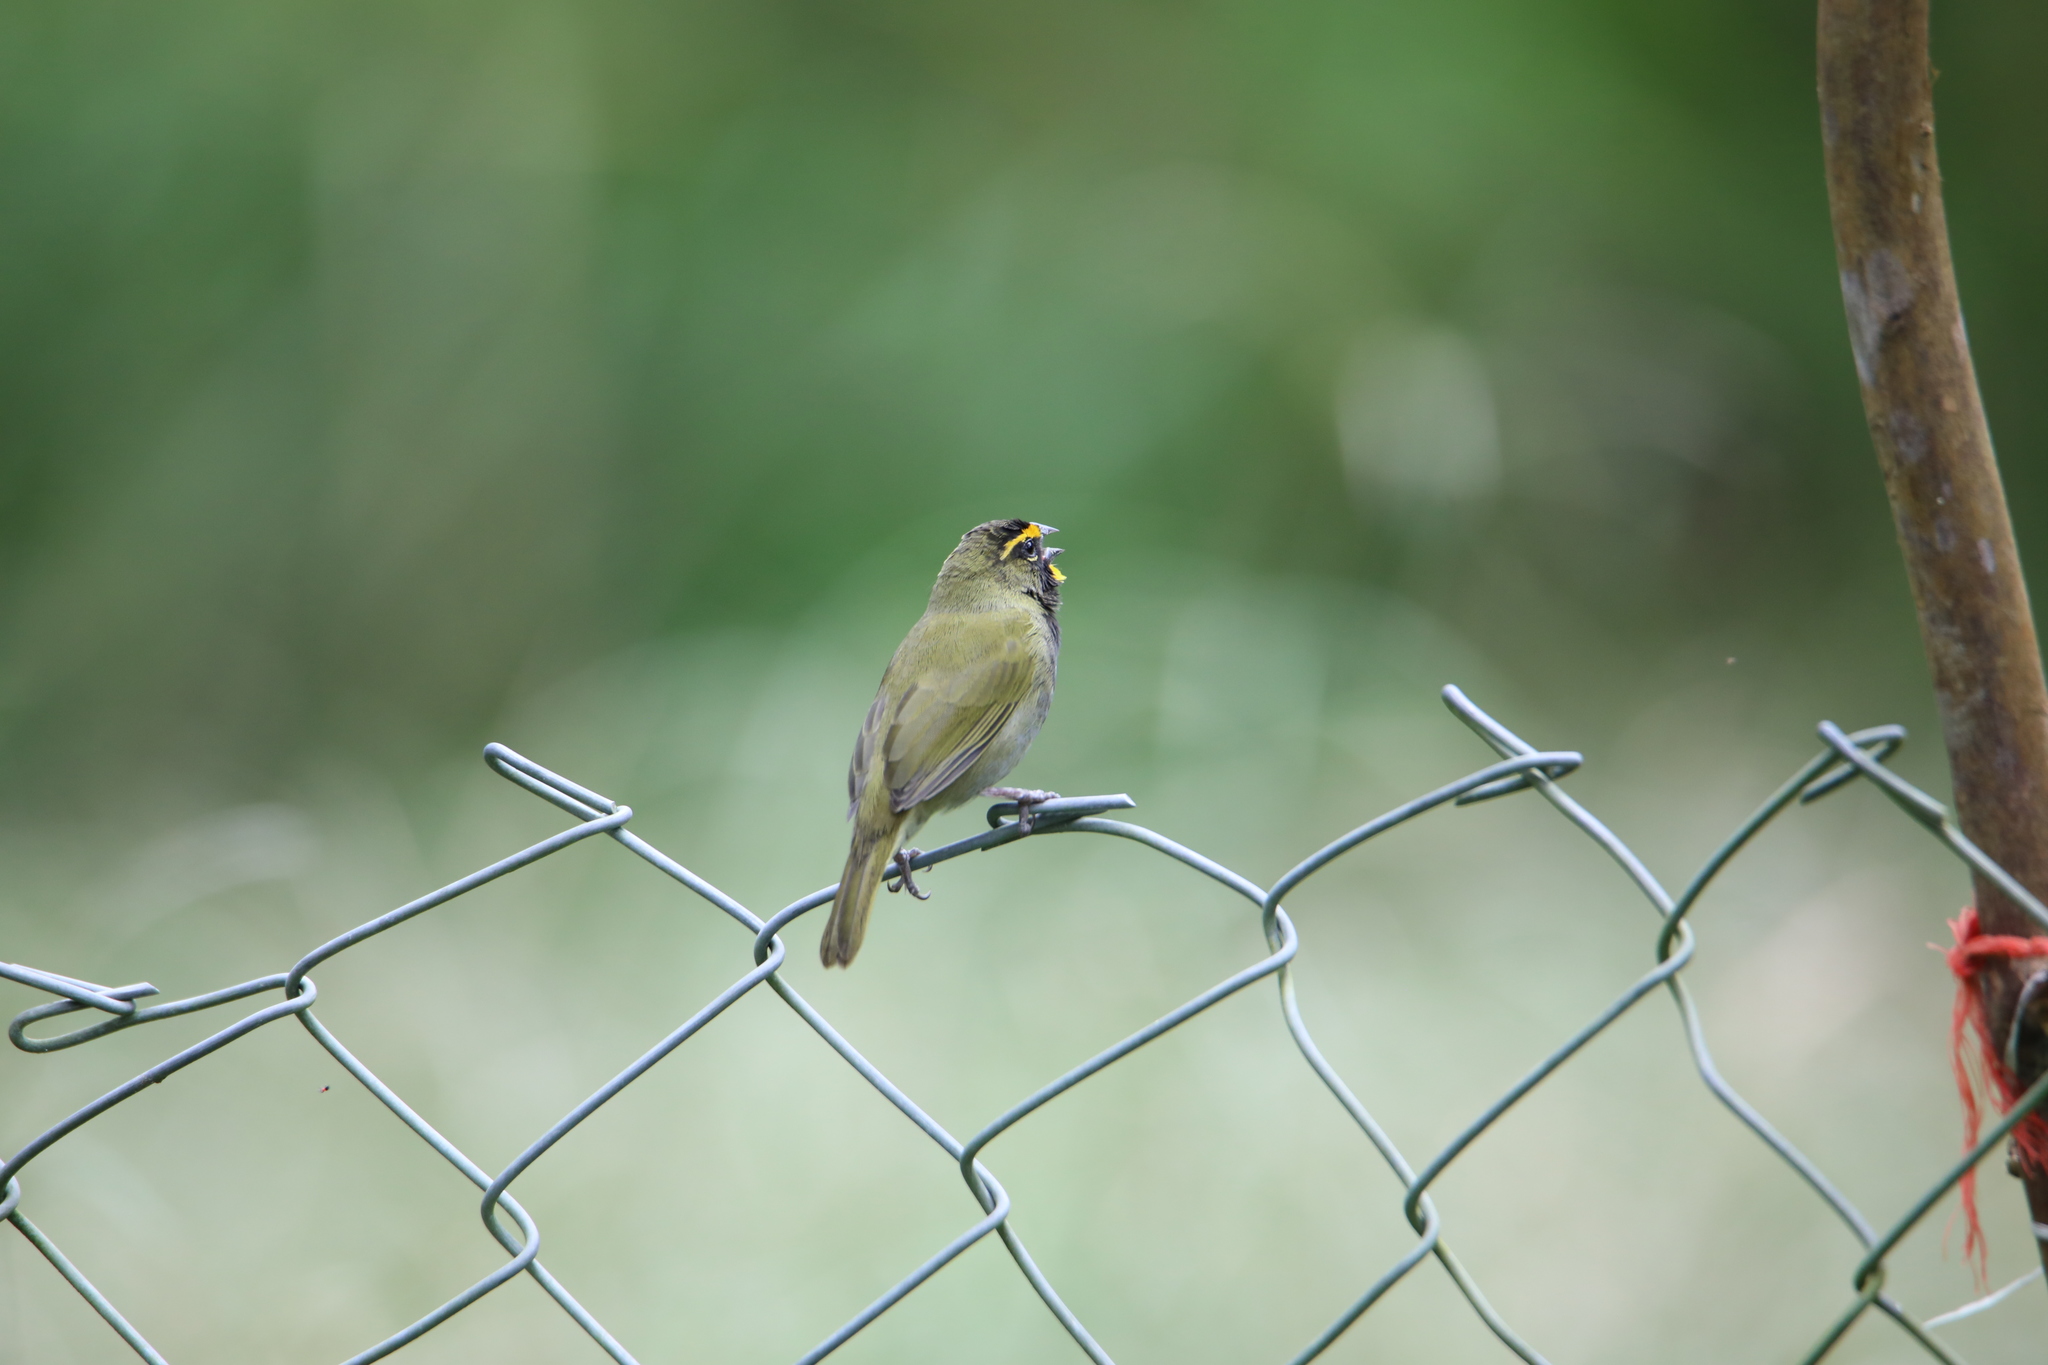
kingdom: Animalia
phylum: Chordata
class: Aves
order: Passeriformes
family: Thraupidae
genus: Tiaris
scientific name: Tiaris olivaceus
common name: Yellow-faced grassquit
